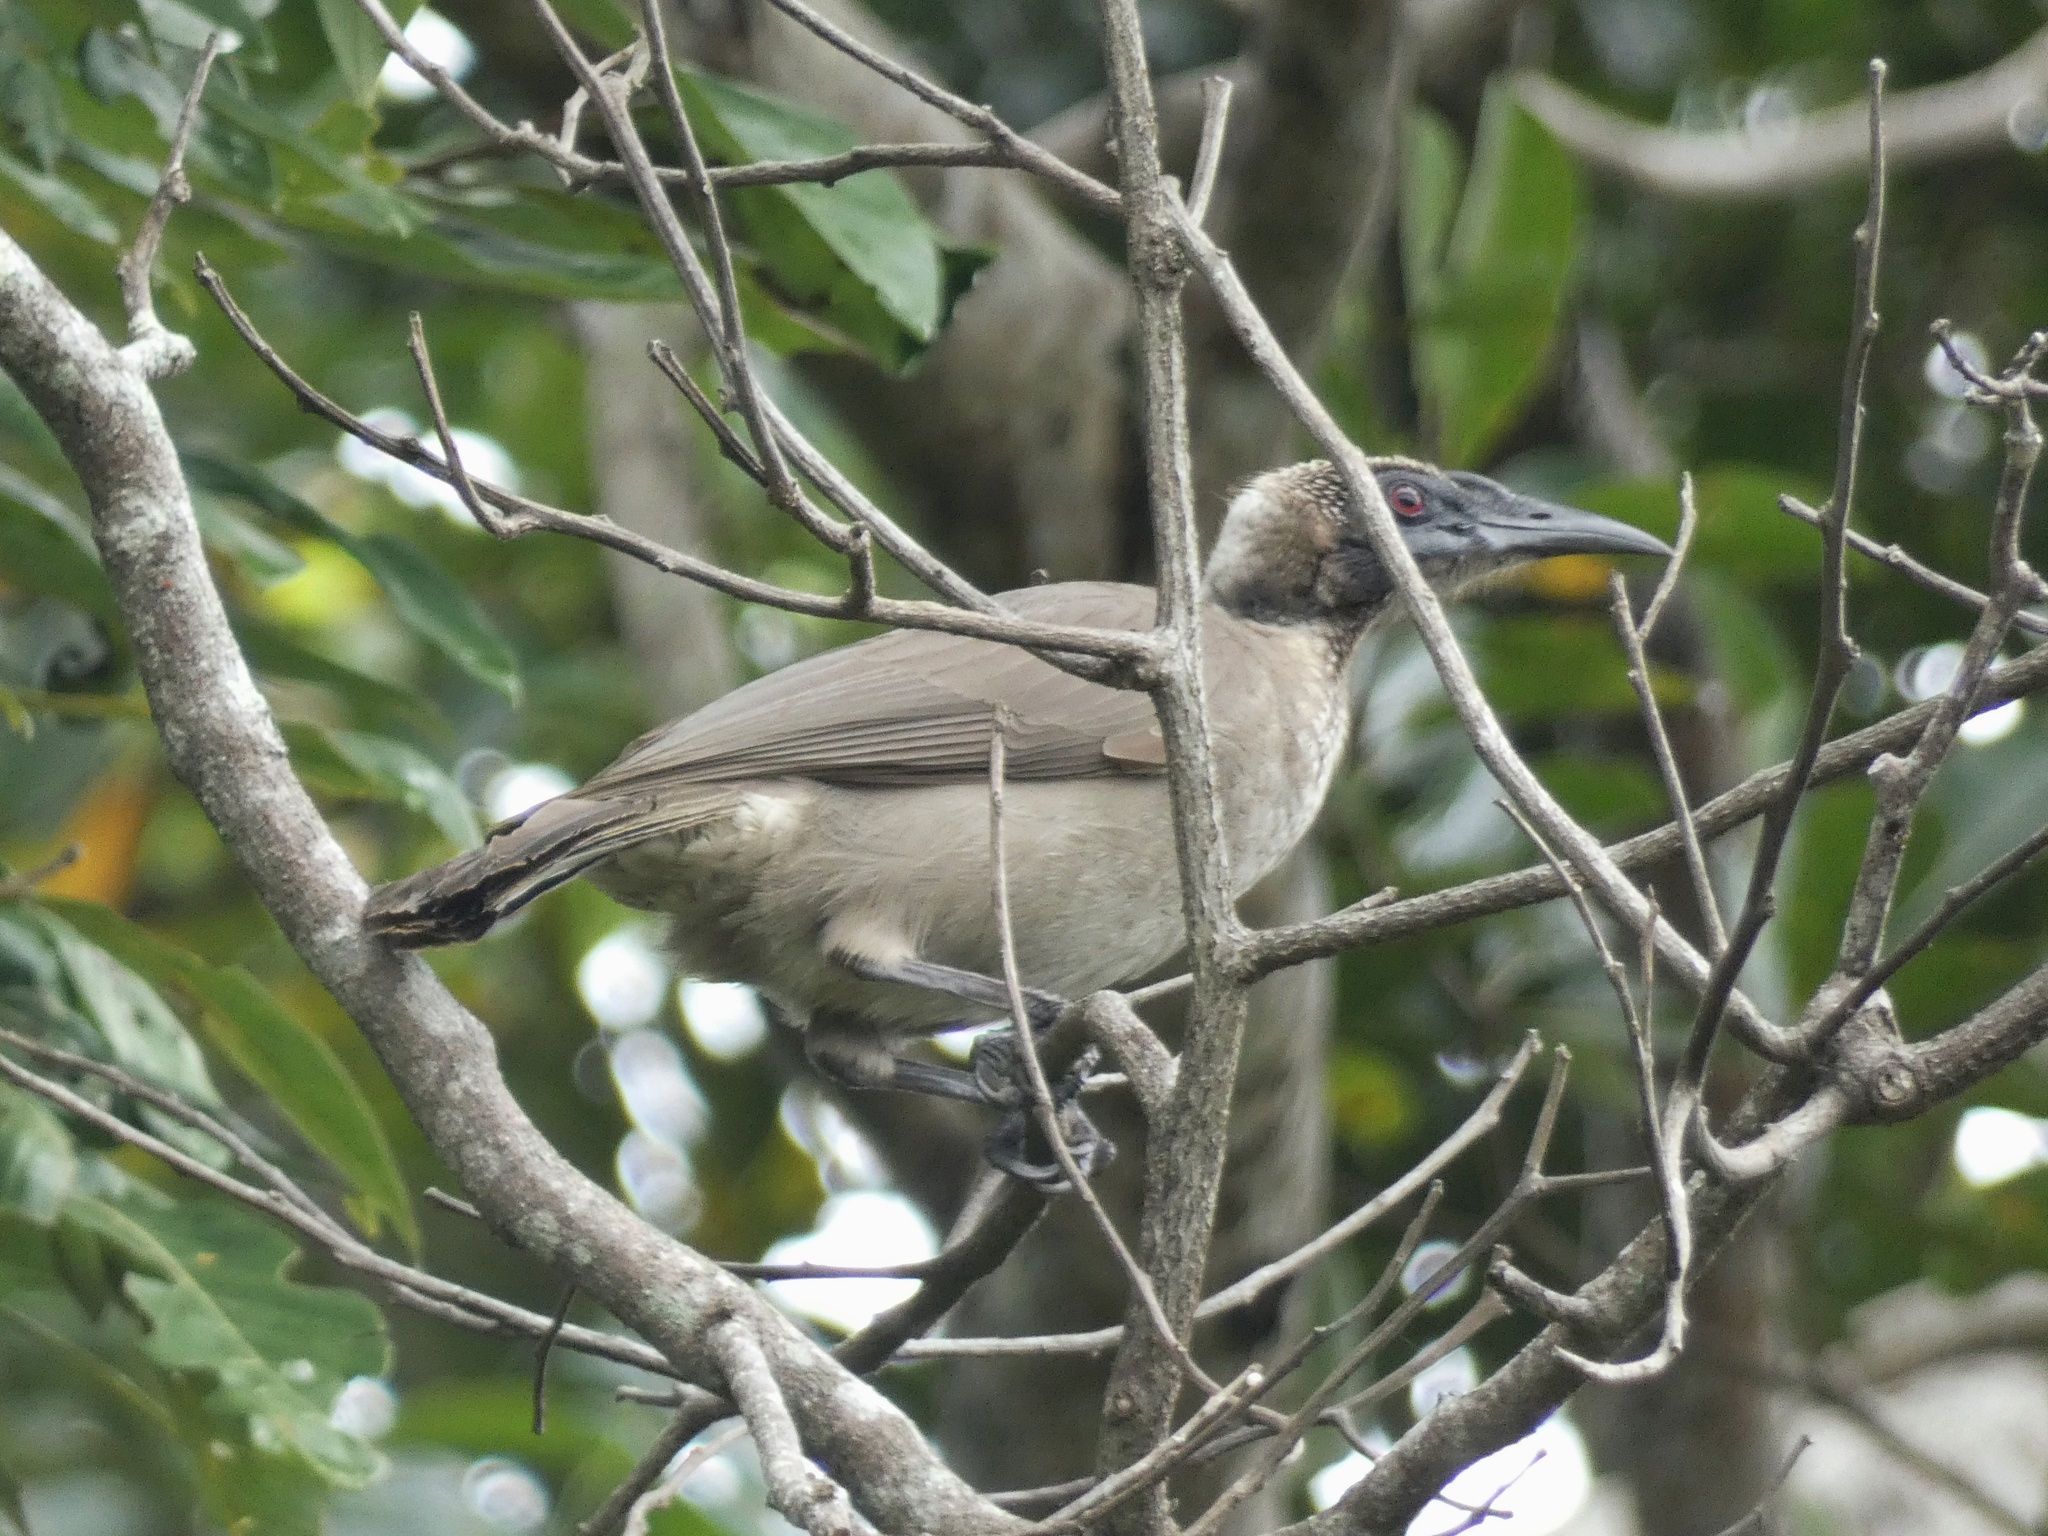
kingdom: Animalia
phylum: Chordata
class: Aves
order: Passeriformes
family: Meliphagidae
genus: Philemon
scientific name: Philemon buceroides
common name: Helmeted friarbird
